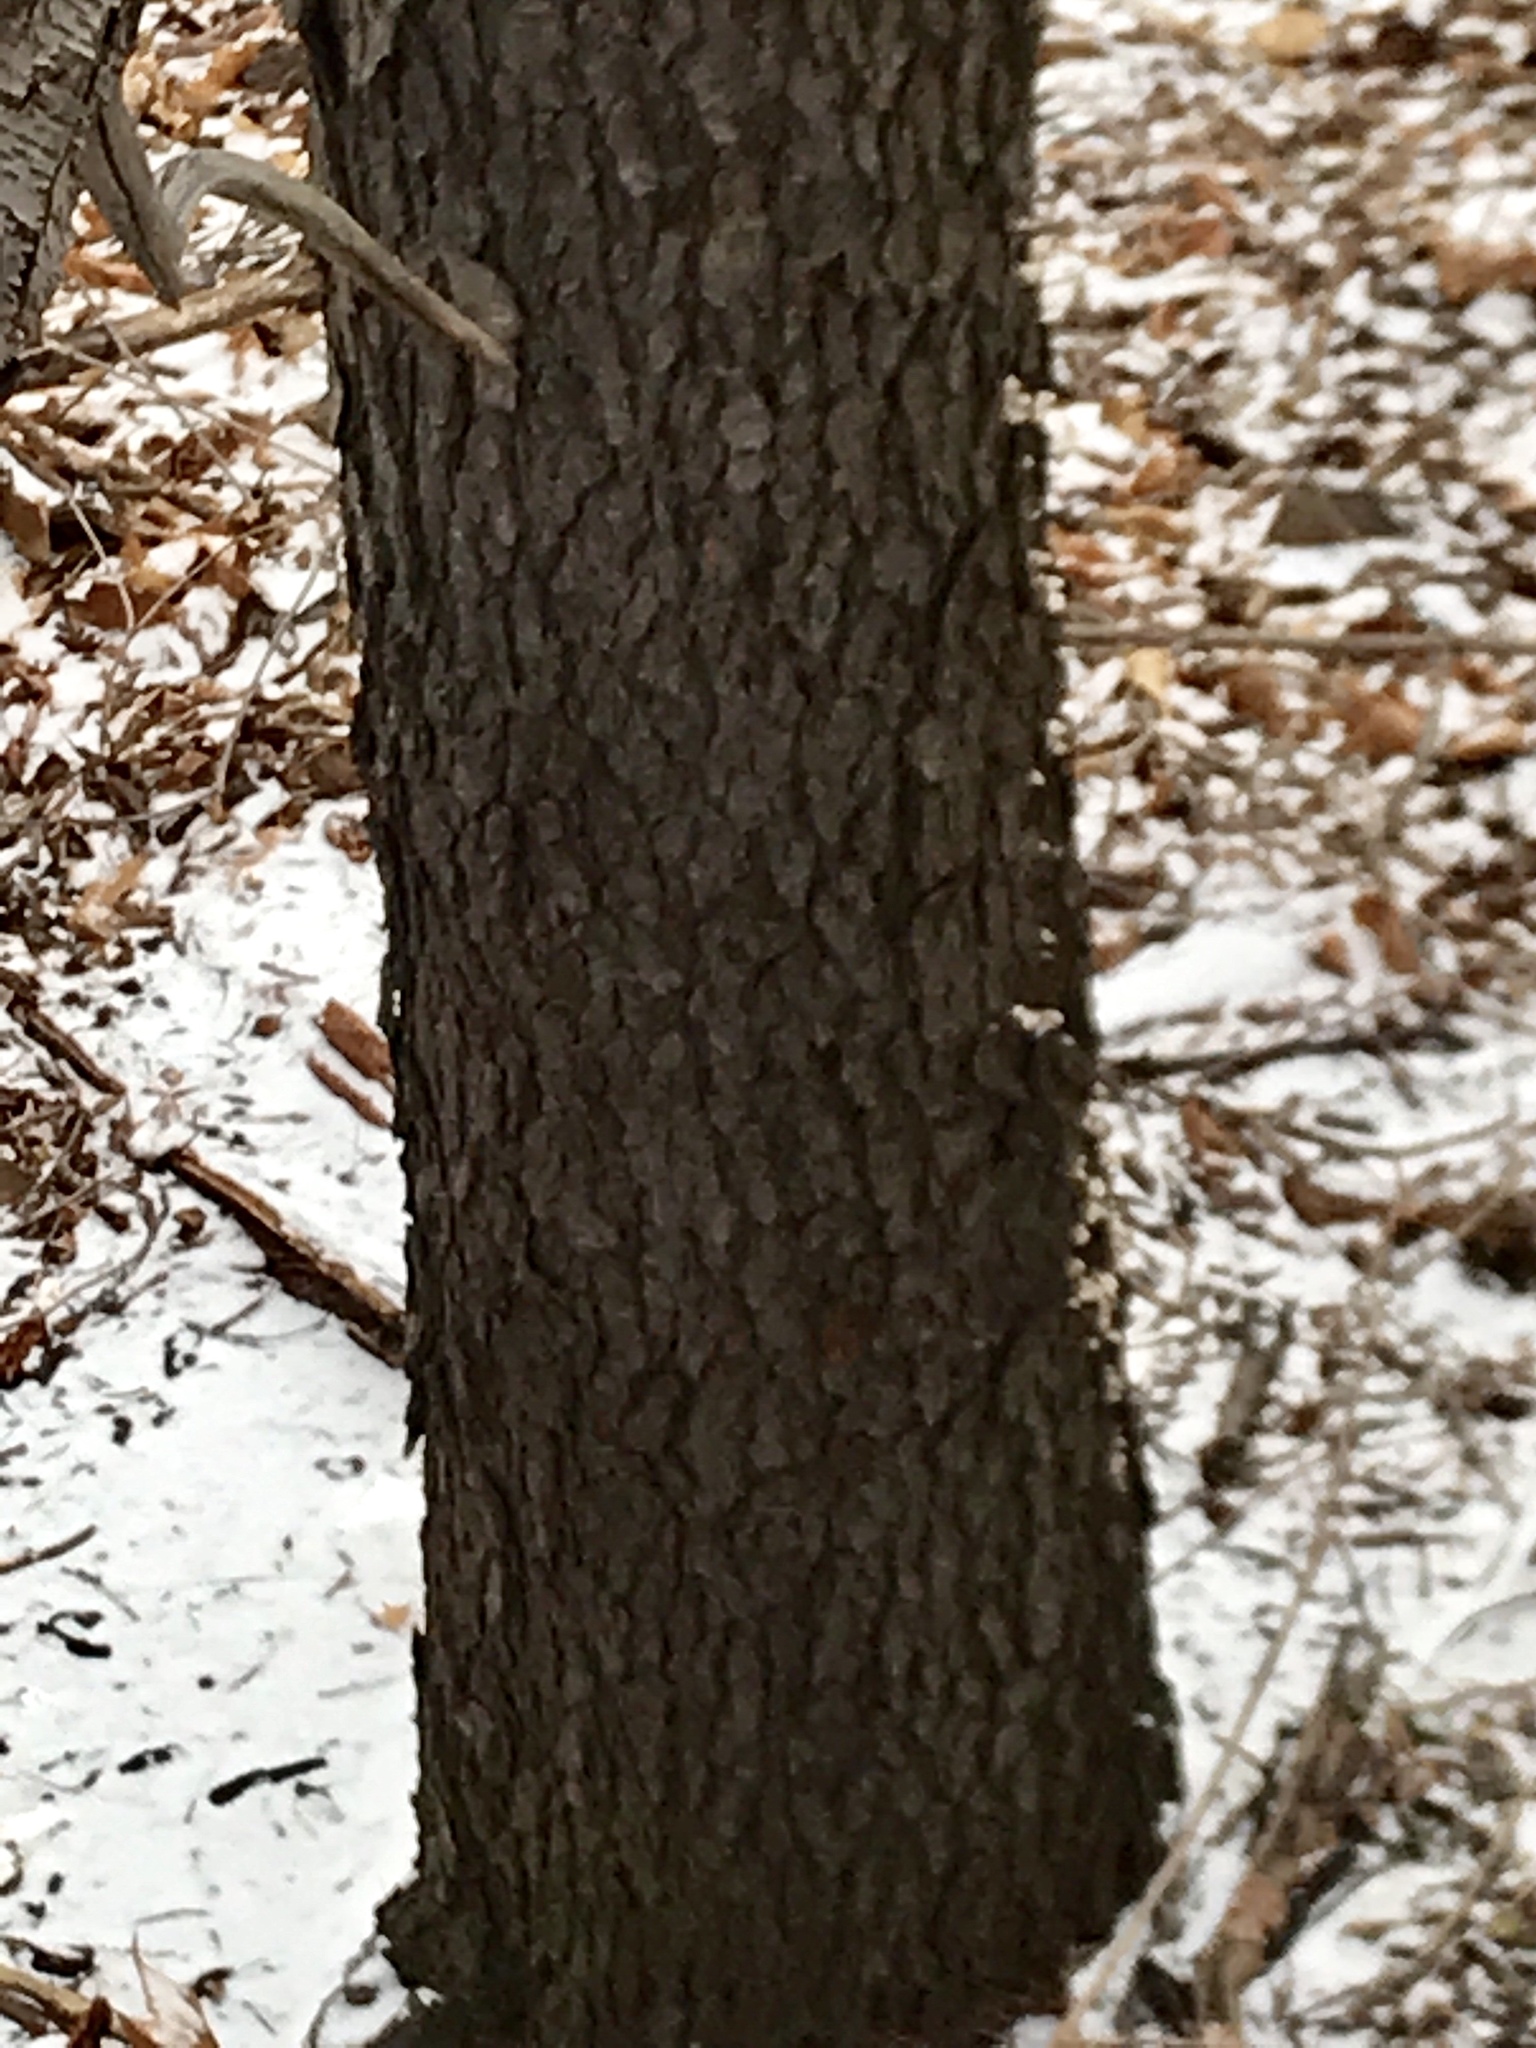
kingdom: Plantae
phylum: Tracheophyta
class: Magnoliopsida
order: Rosales
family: Rosaceae
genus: Prunus
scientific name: Prunus serotina
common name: Black cherry
